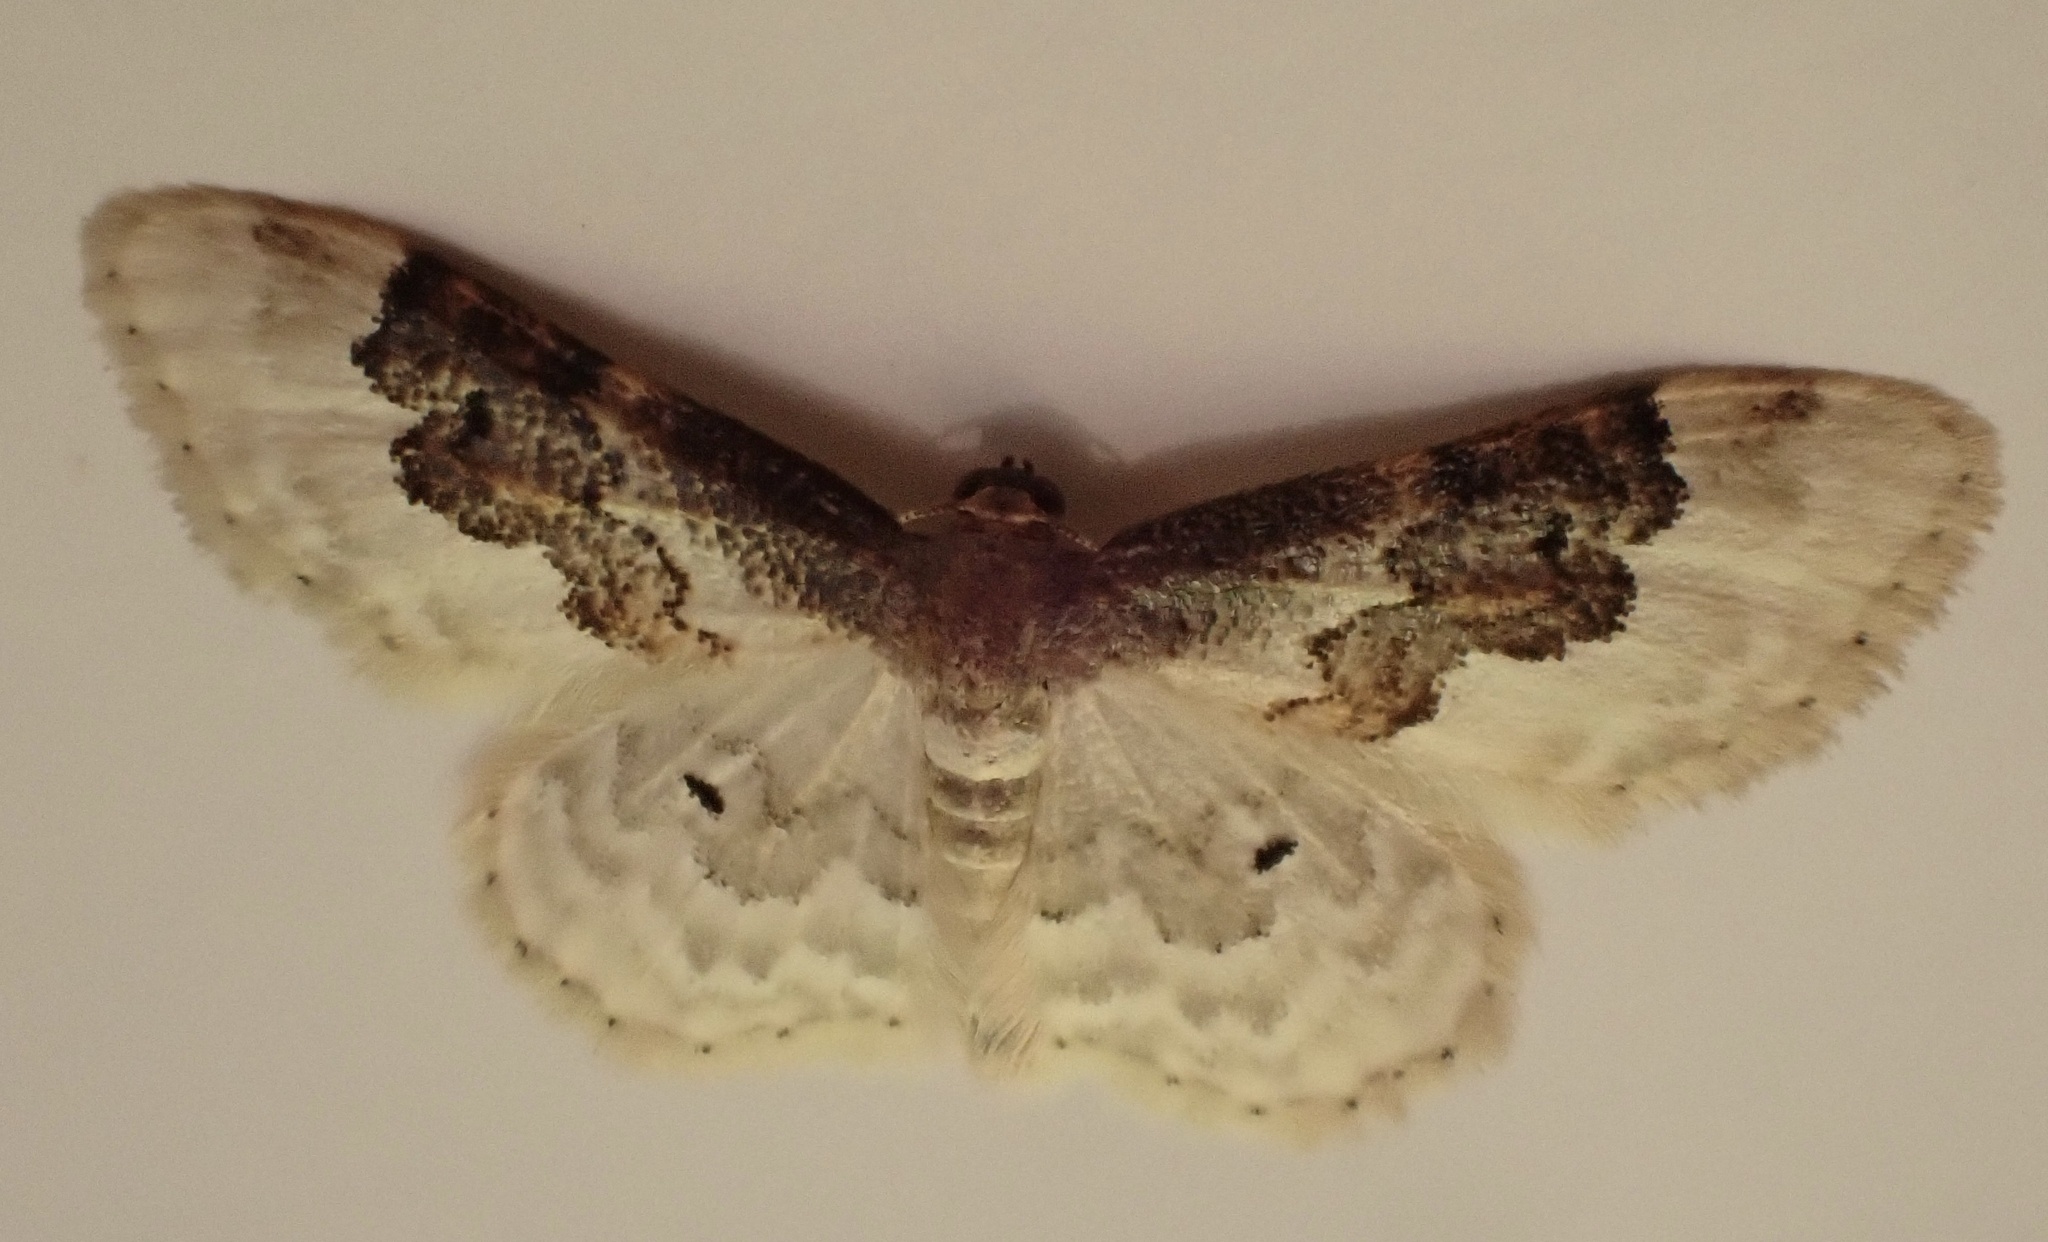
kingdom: Animalia
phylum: Arthropoda
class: Insecta
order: Lepidoptera
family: Geometridae
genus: Idaea
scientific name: Idaea rusticata
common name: Least carpet
